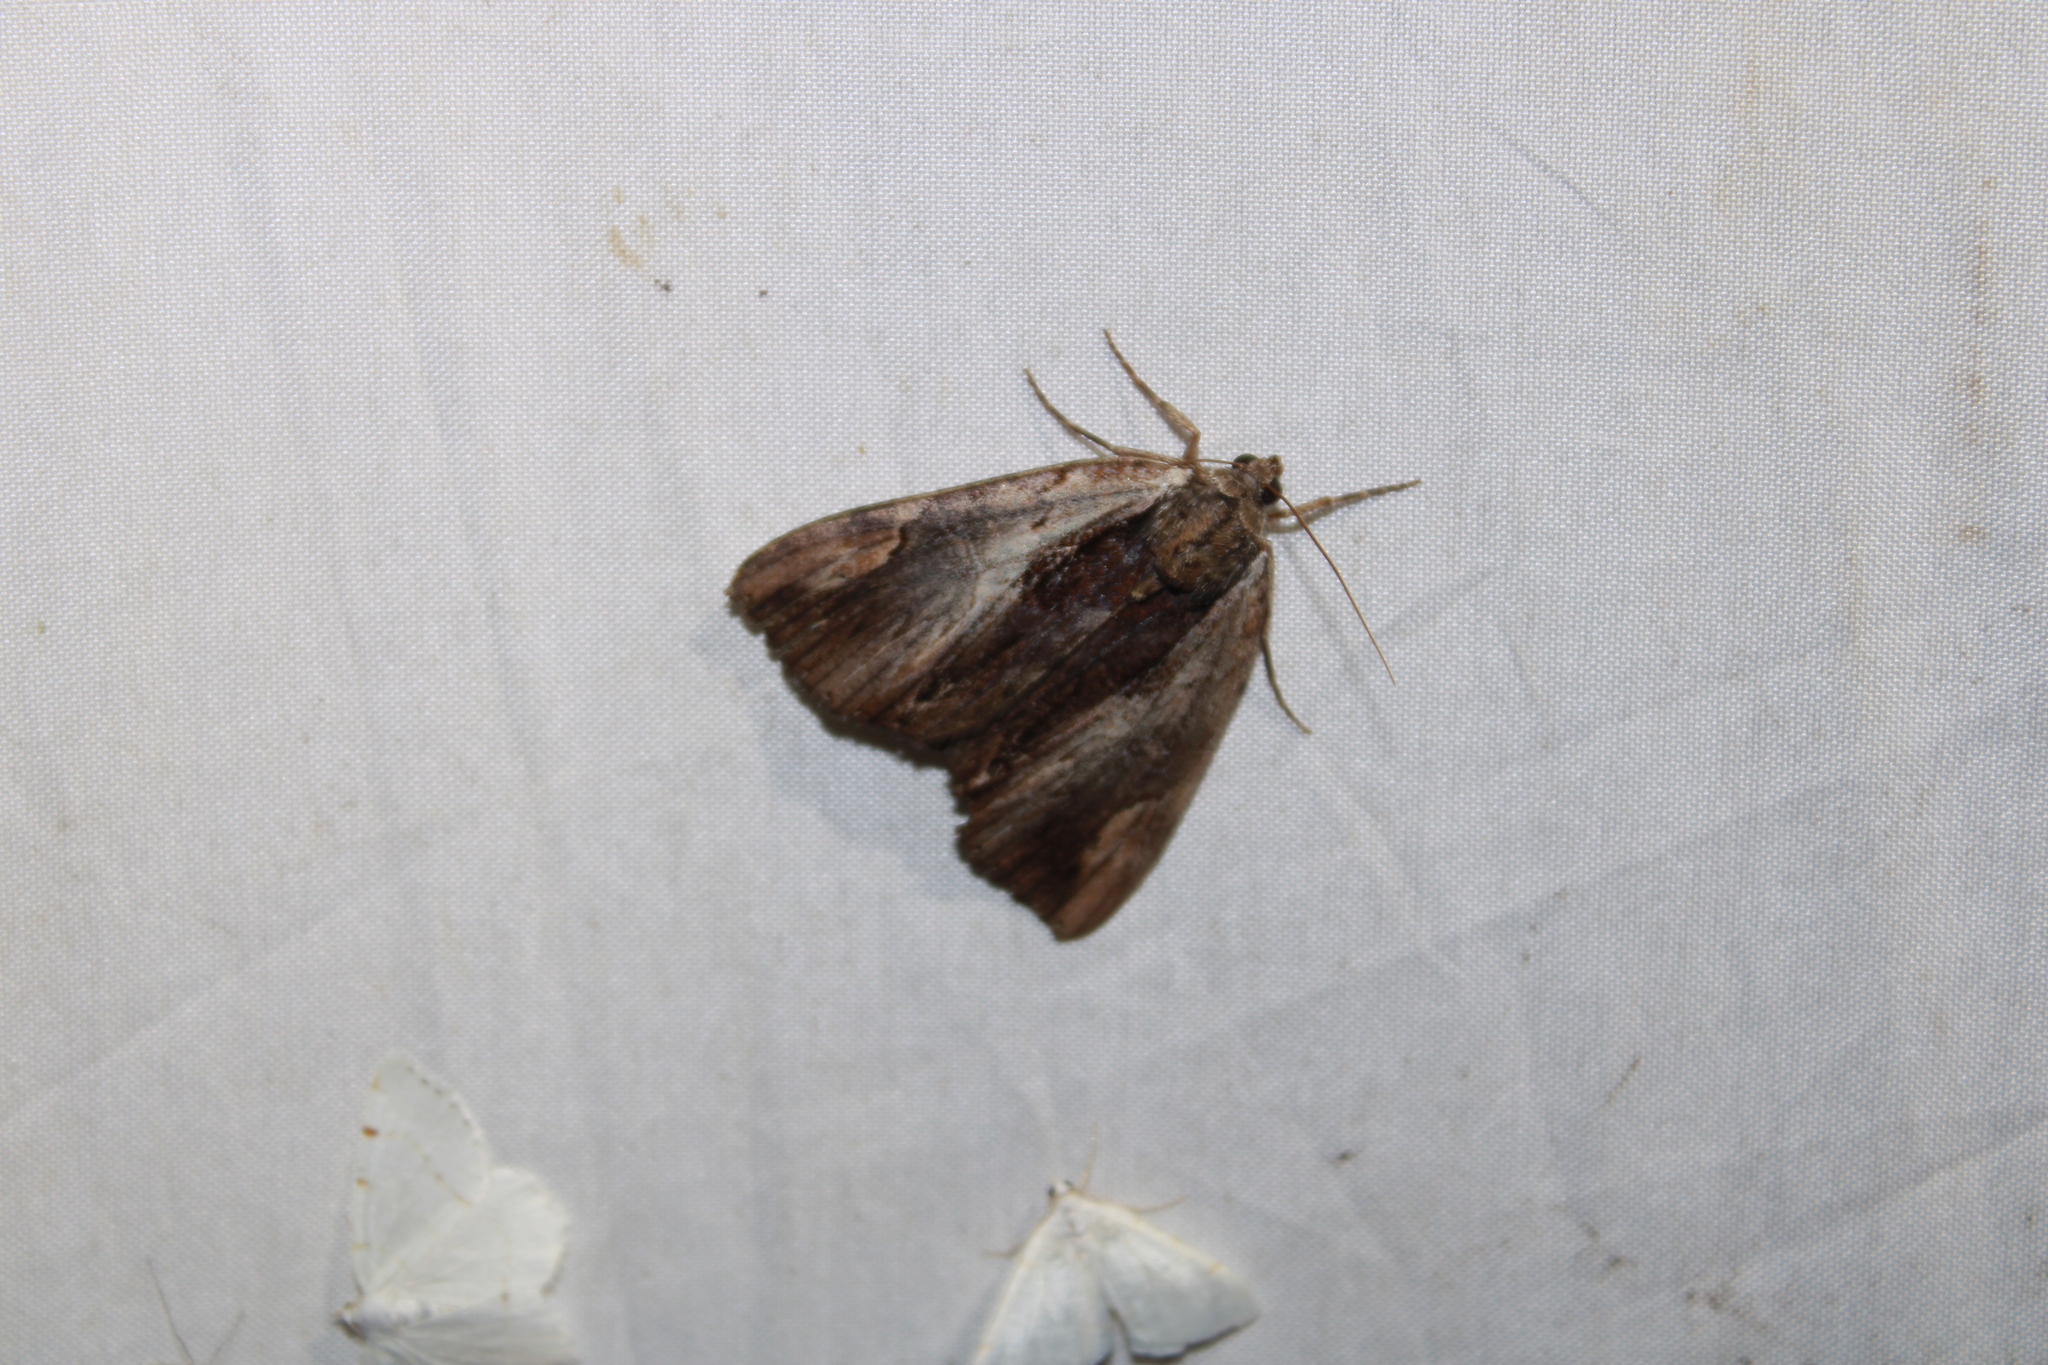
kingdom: Animalia
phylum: Arthropoda
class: Insecta
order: Lepidoptera
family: Erebidae
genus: Catocala
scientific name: Catocala ultronia
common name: Ultronia underwing
